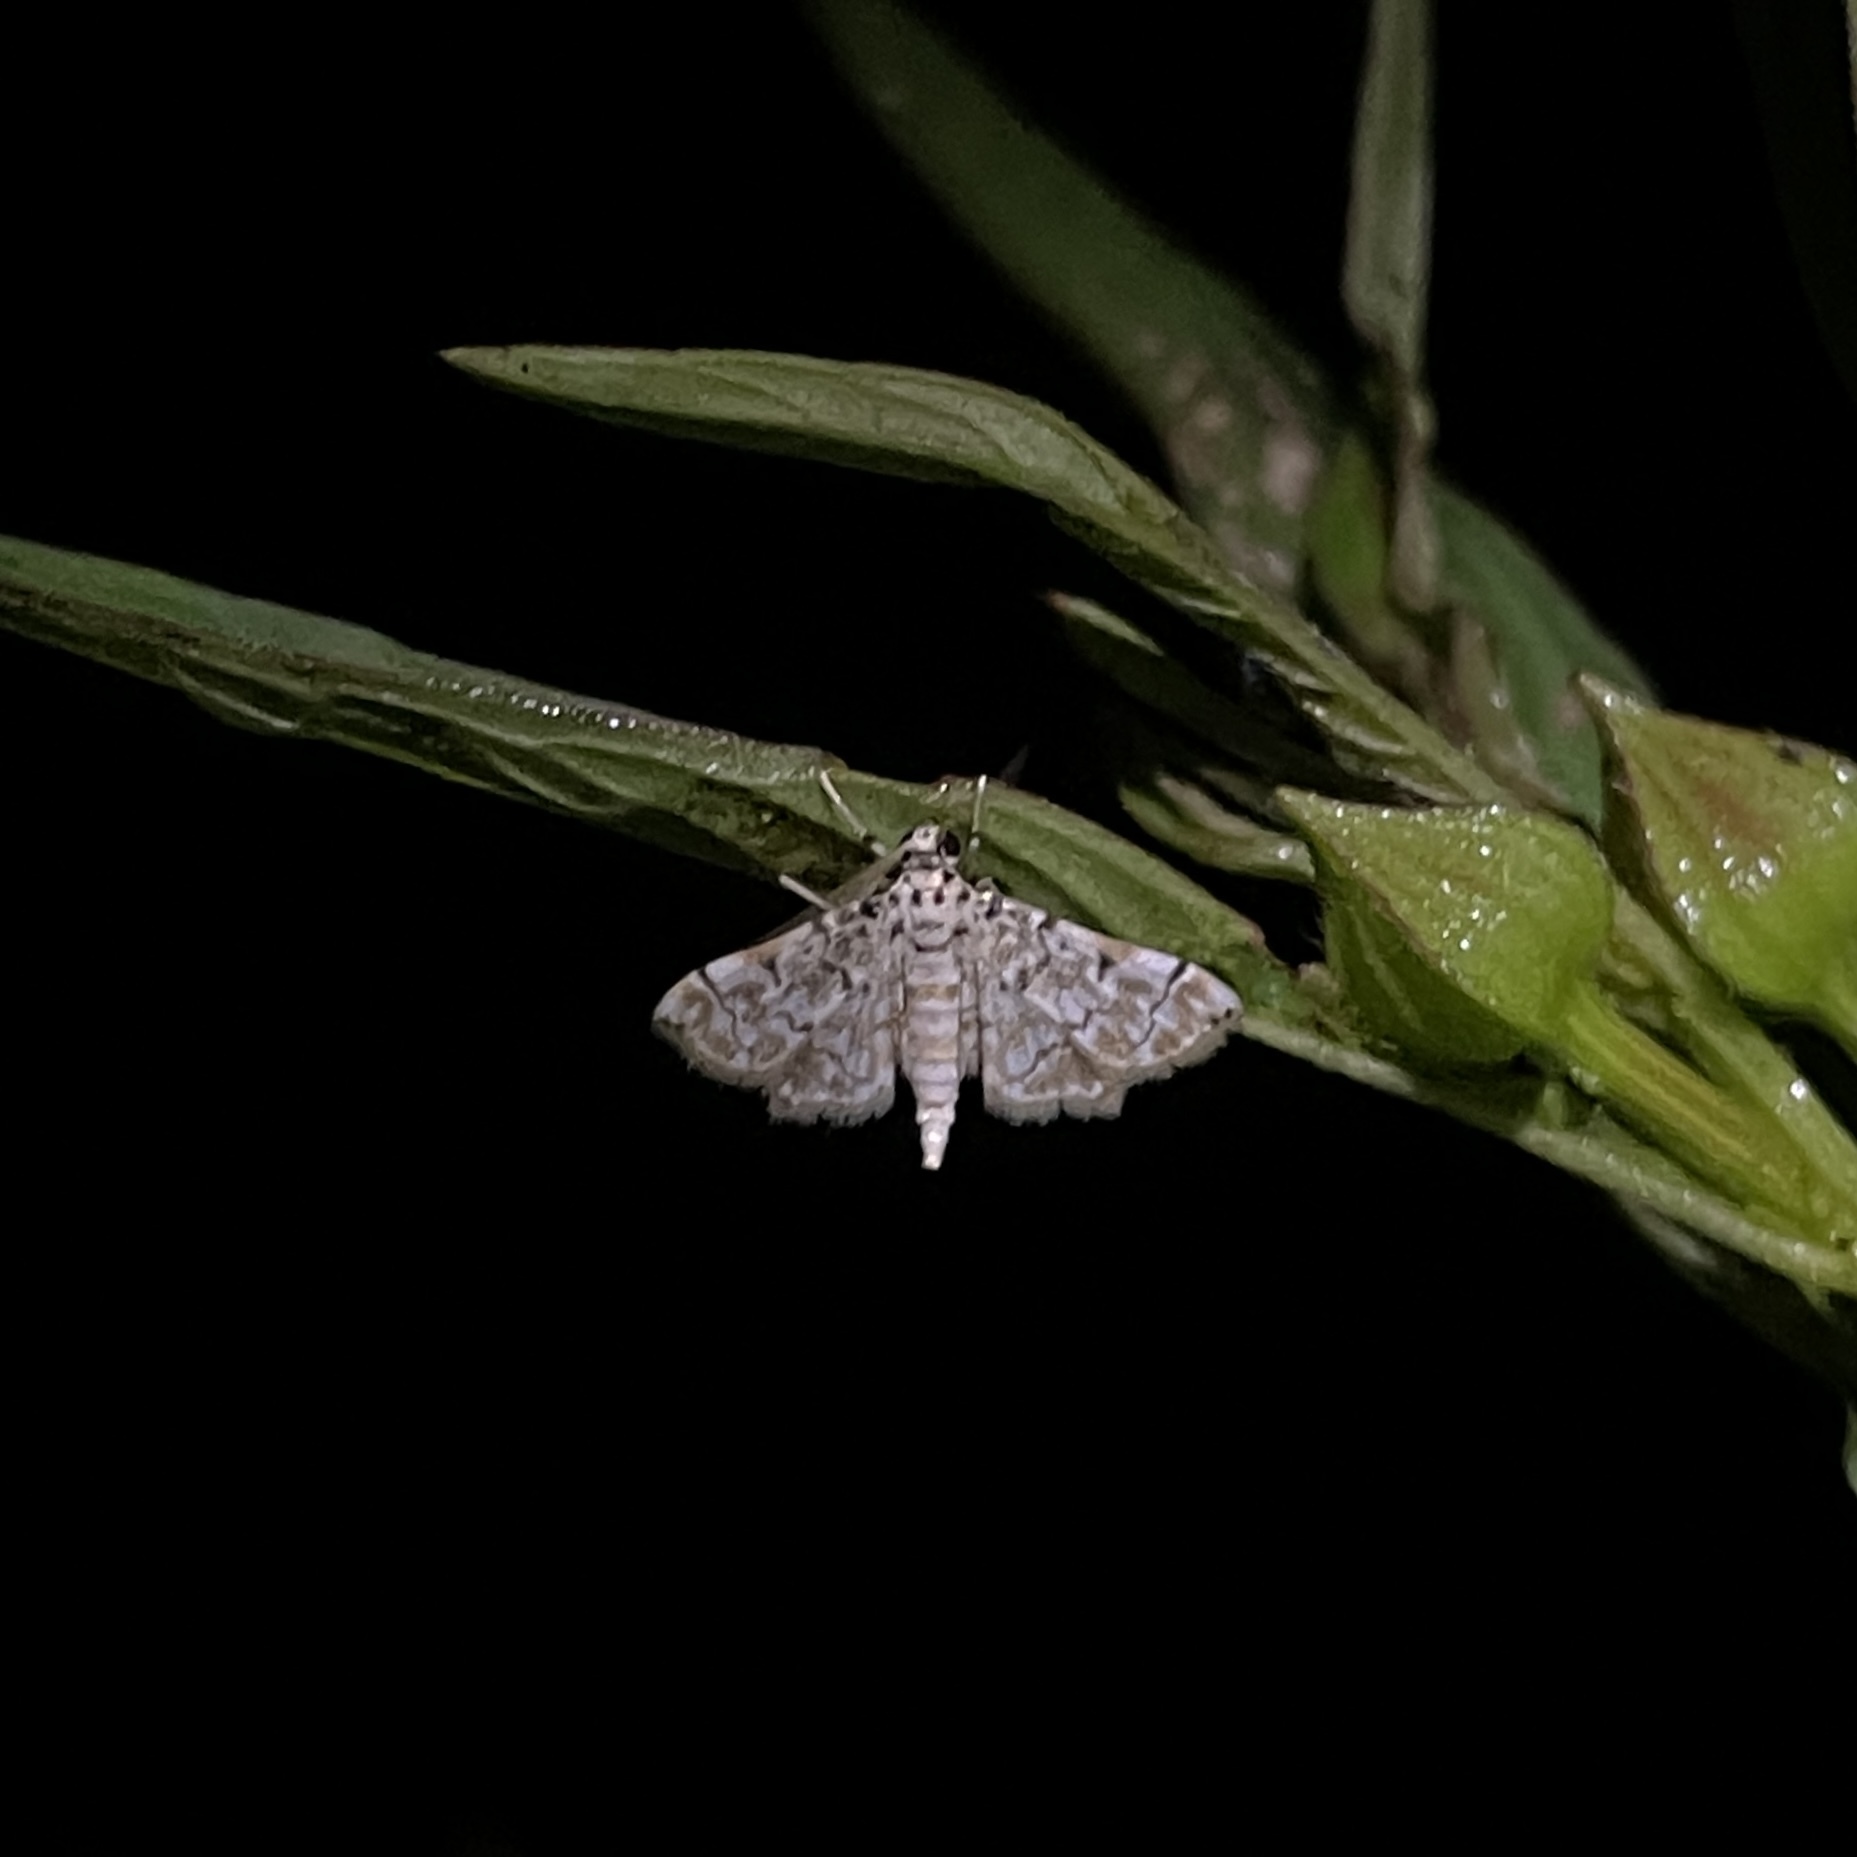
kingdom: Animalia
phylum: Arthropoda
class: Insecta
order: Lepidoptera
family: Crambidae
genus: Metoeca
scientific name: Metoeca foedalis
